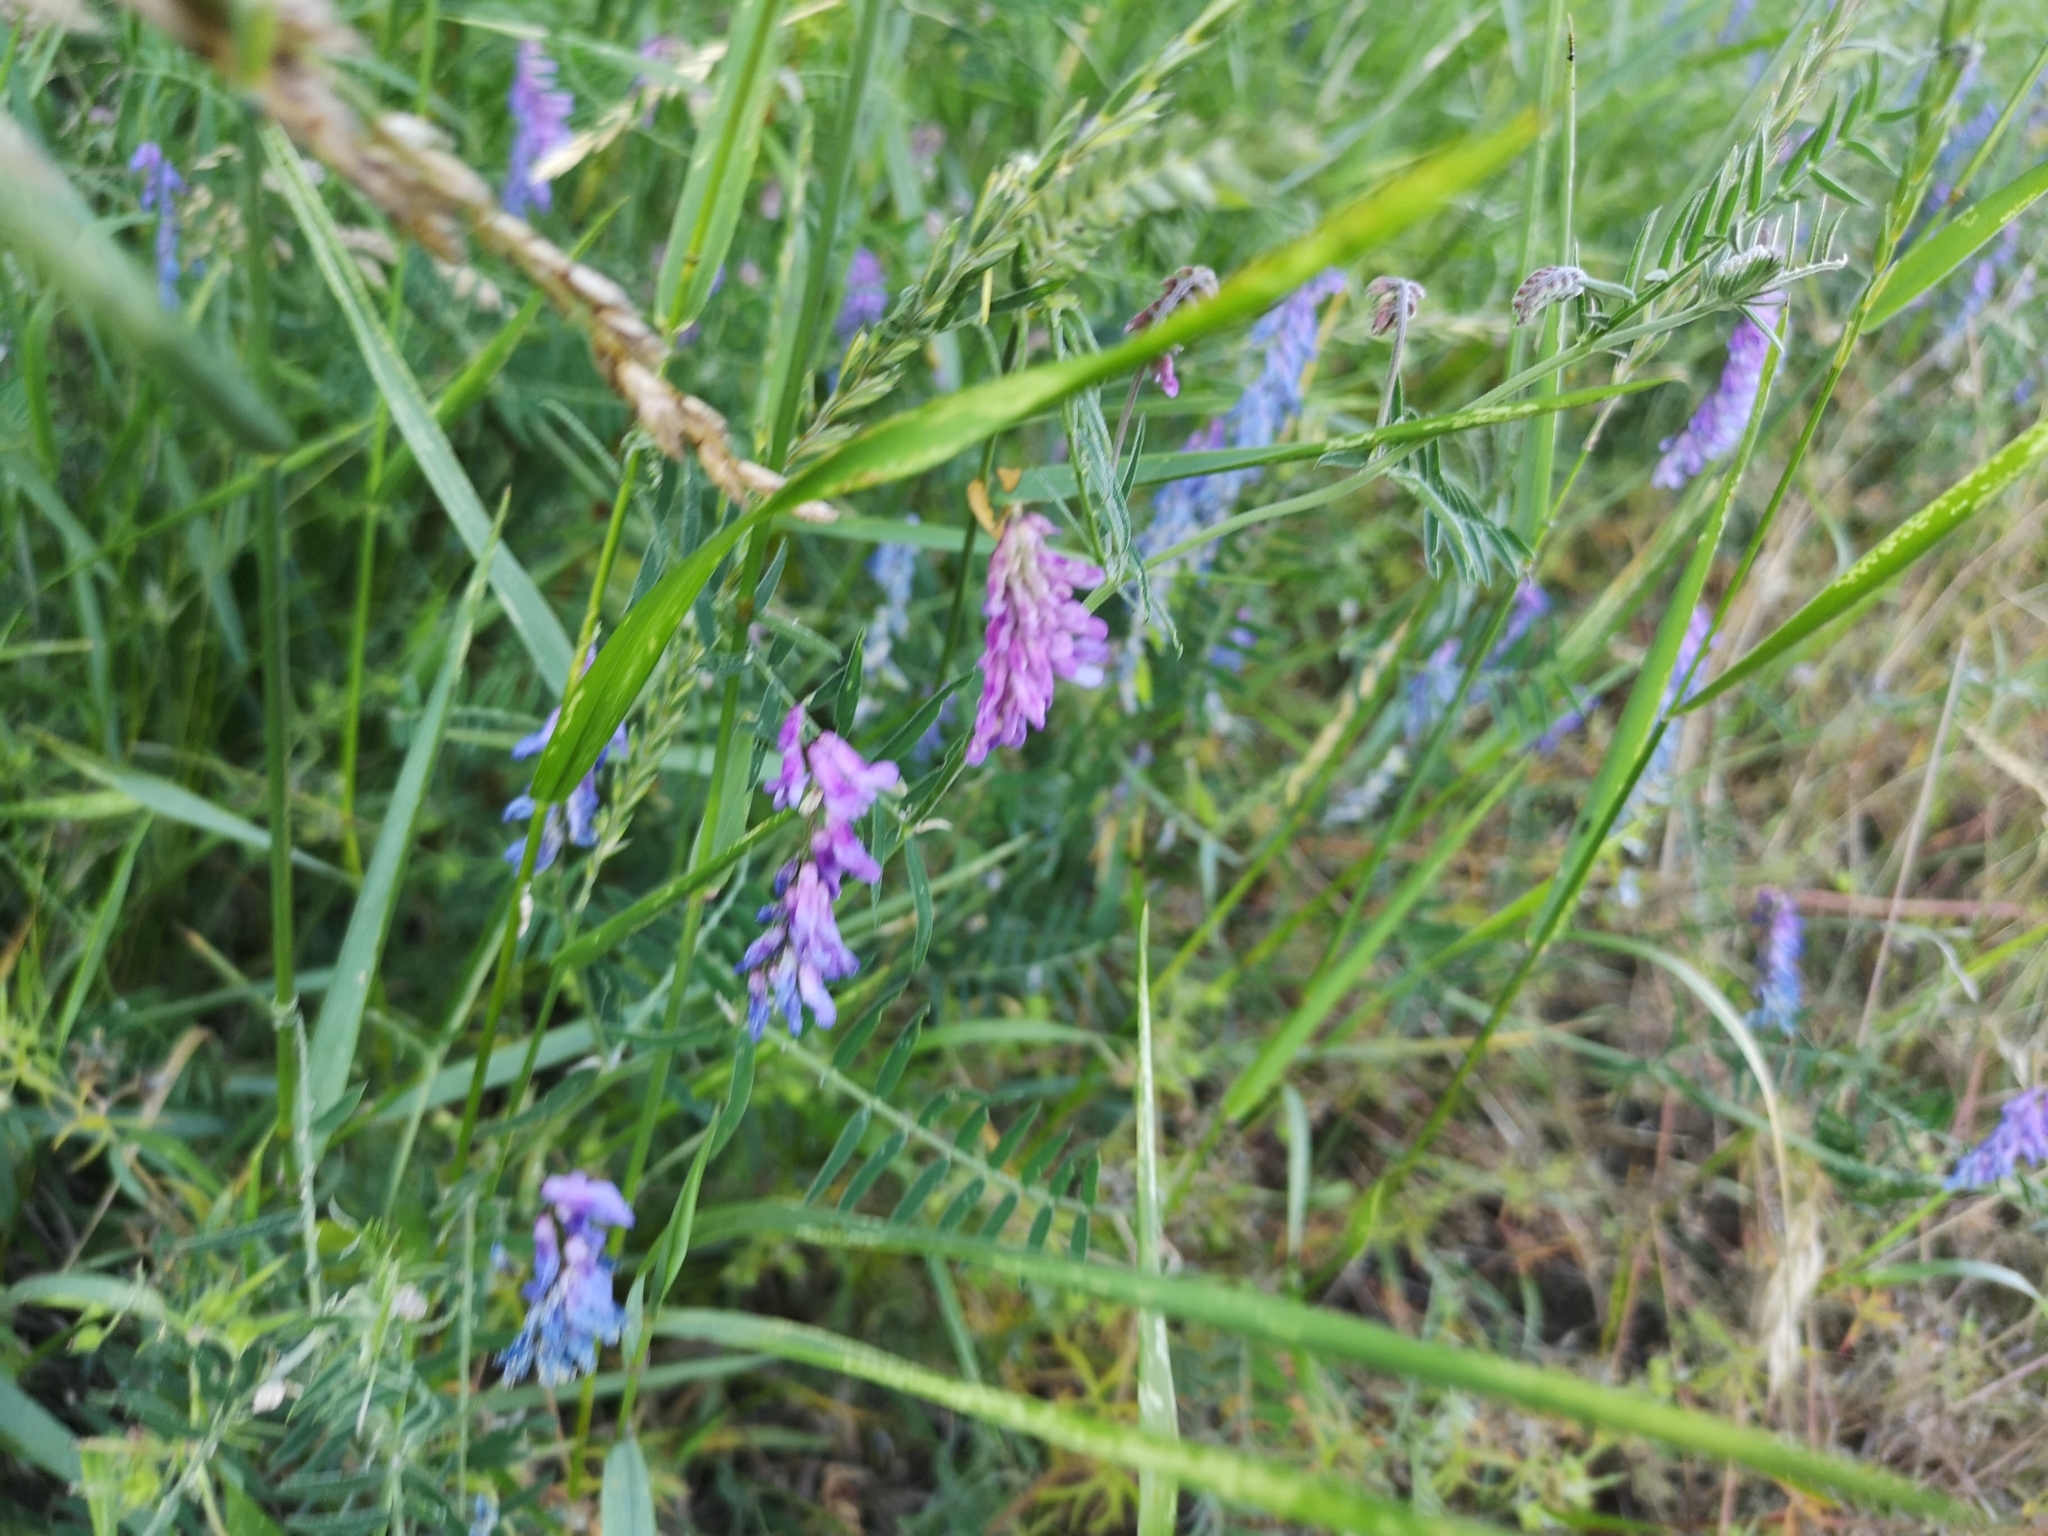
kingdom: Plantae
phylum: Tracheophyta
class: Magnoliopsida
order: Fabales
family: Fabaceae
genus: Vicia
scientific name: Vicia cracca
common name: Bird vetch
